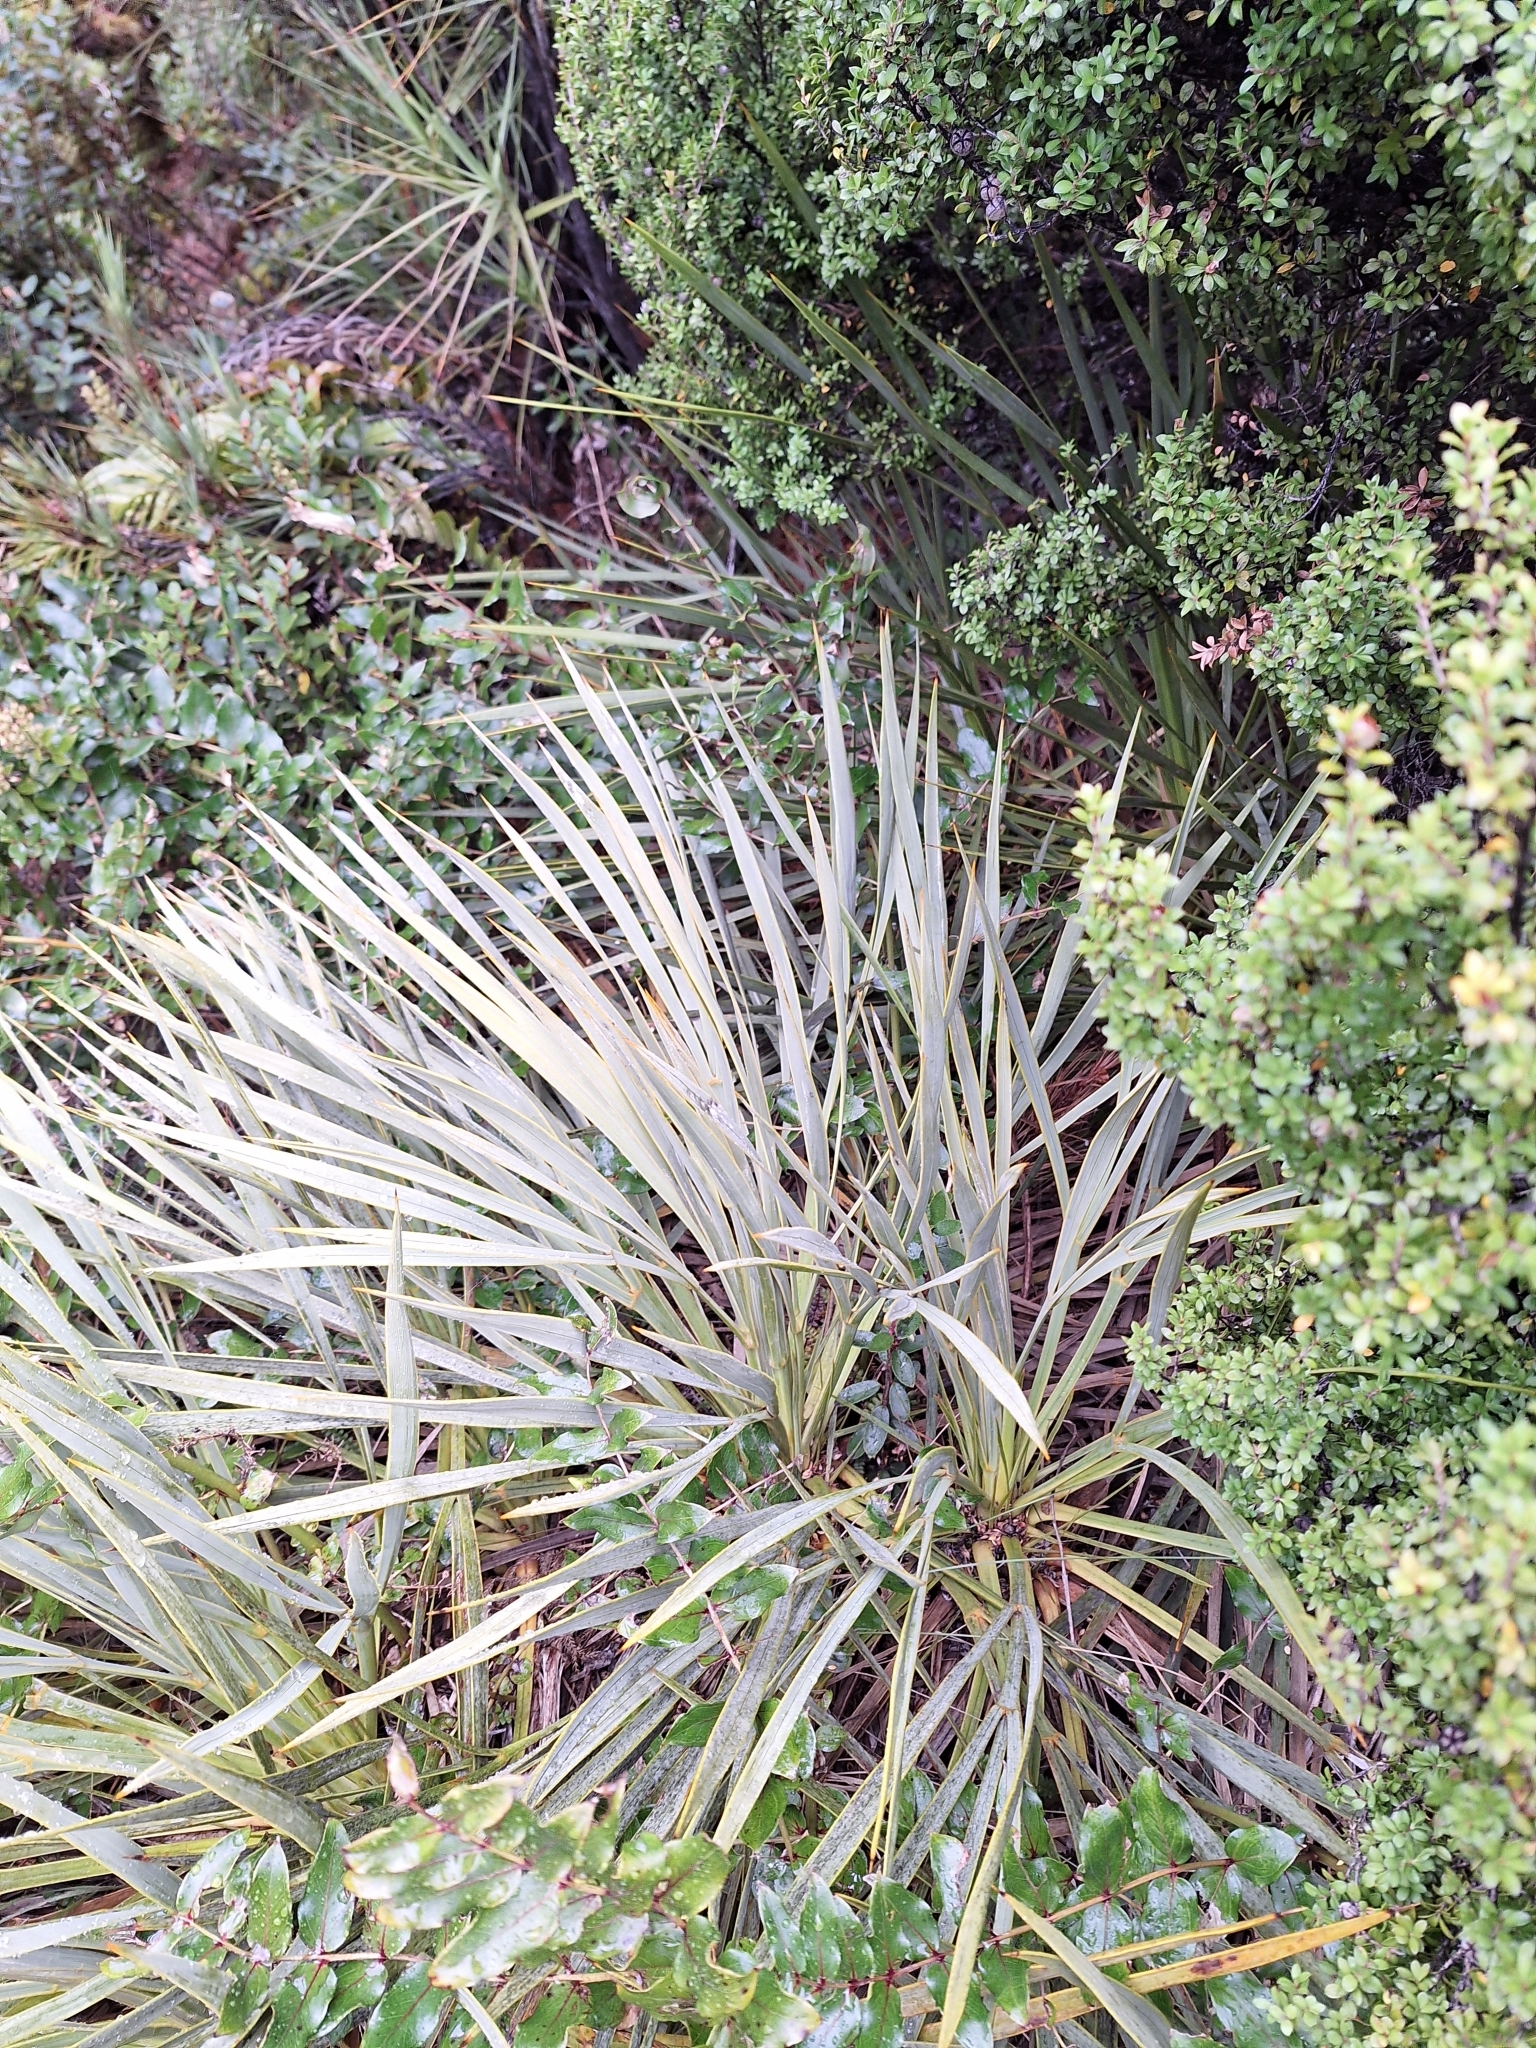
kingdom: Plantae
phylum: Tracheophyta
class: Magnoliopsida
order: Apiales
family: Apiaceae
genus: Aciphylla
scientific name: Aciphylla scott-thomsonii
